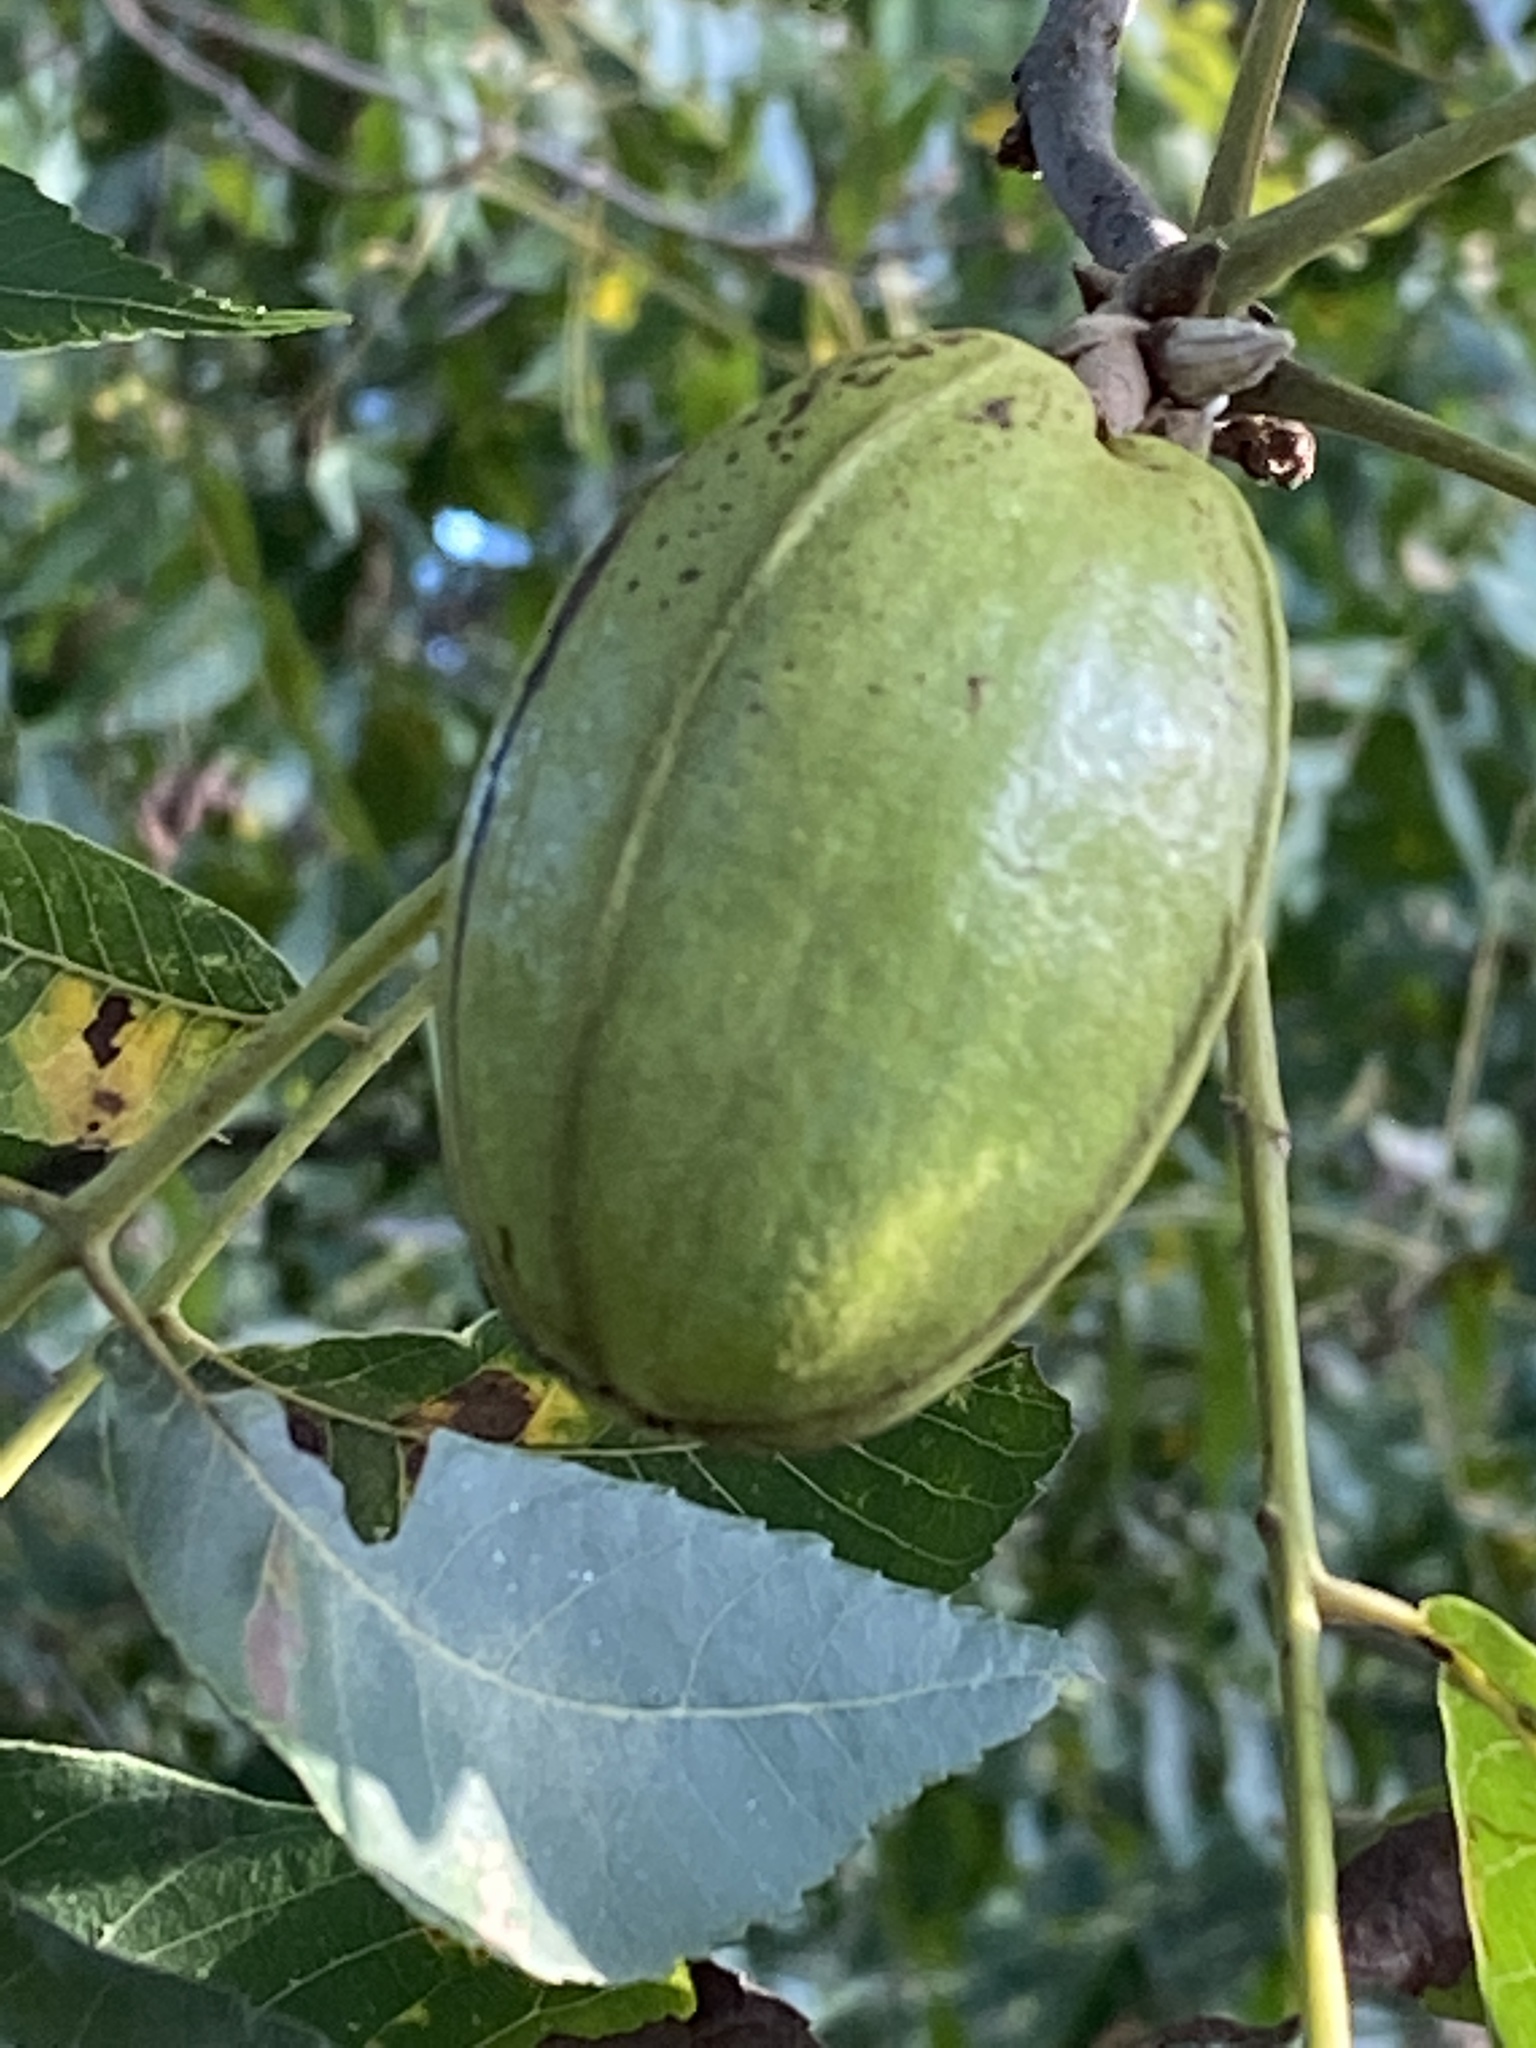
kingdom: Plantae
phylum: Tracheophyta
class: Magnoliopsida
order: Fagales
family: Juglandaceae
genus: Carya
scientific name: Carya illinoinensis
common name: Pecan
